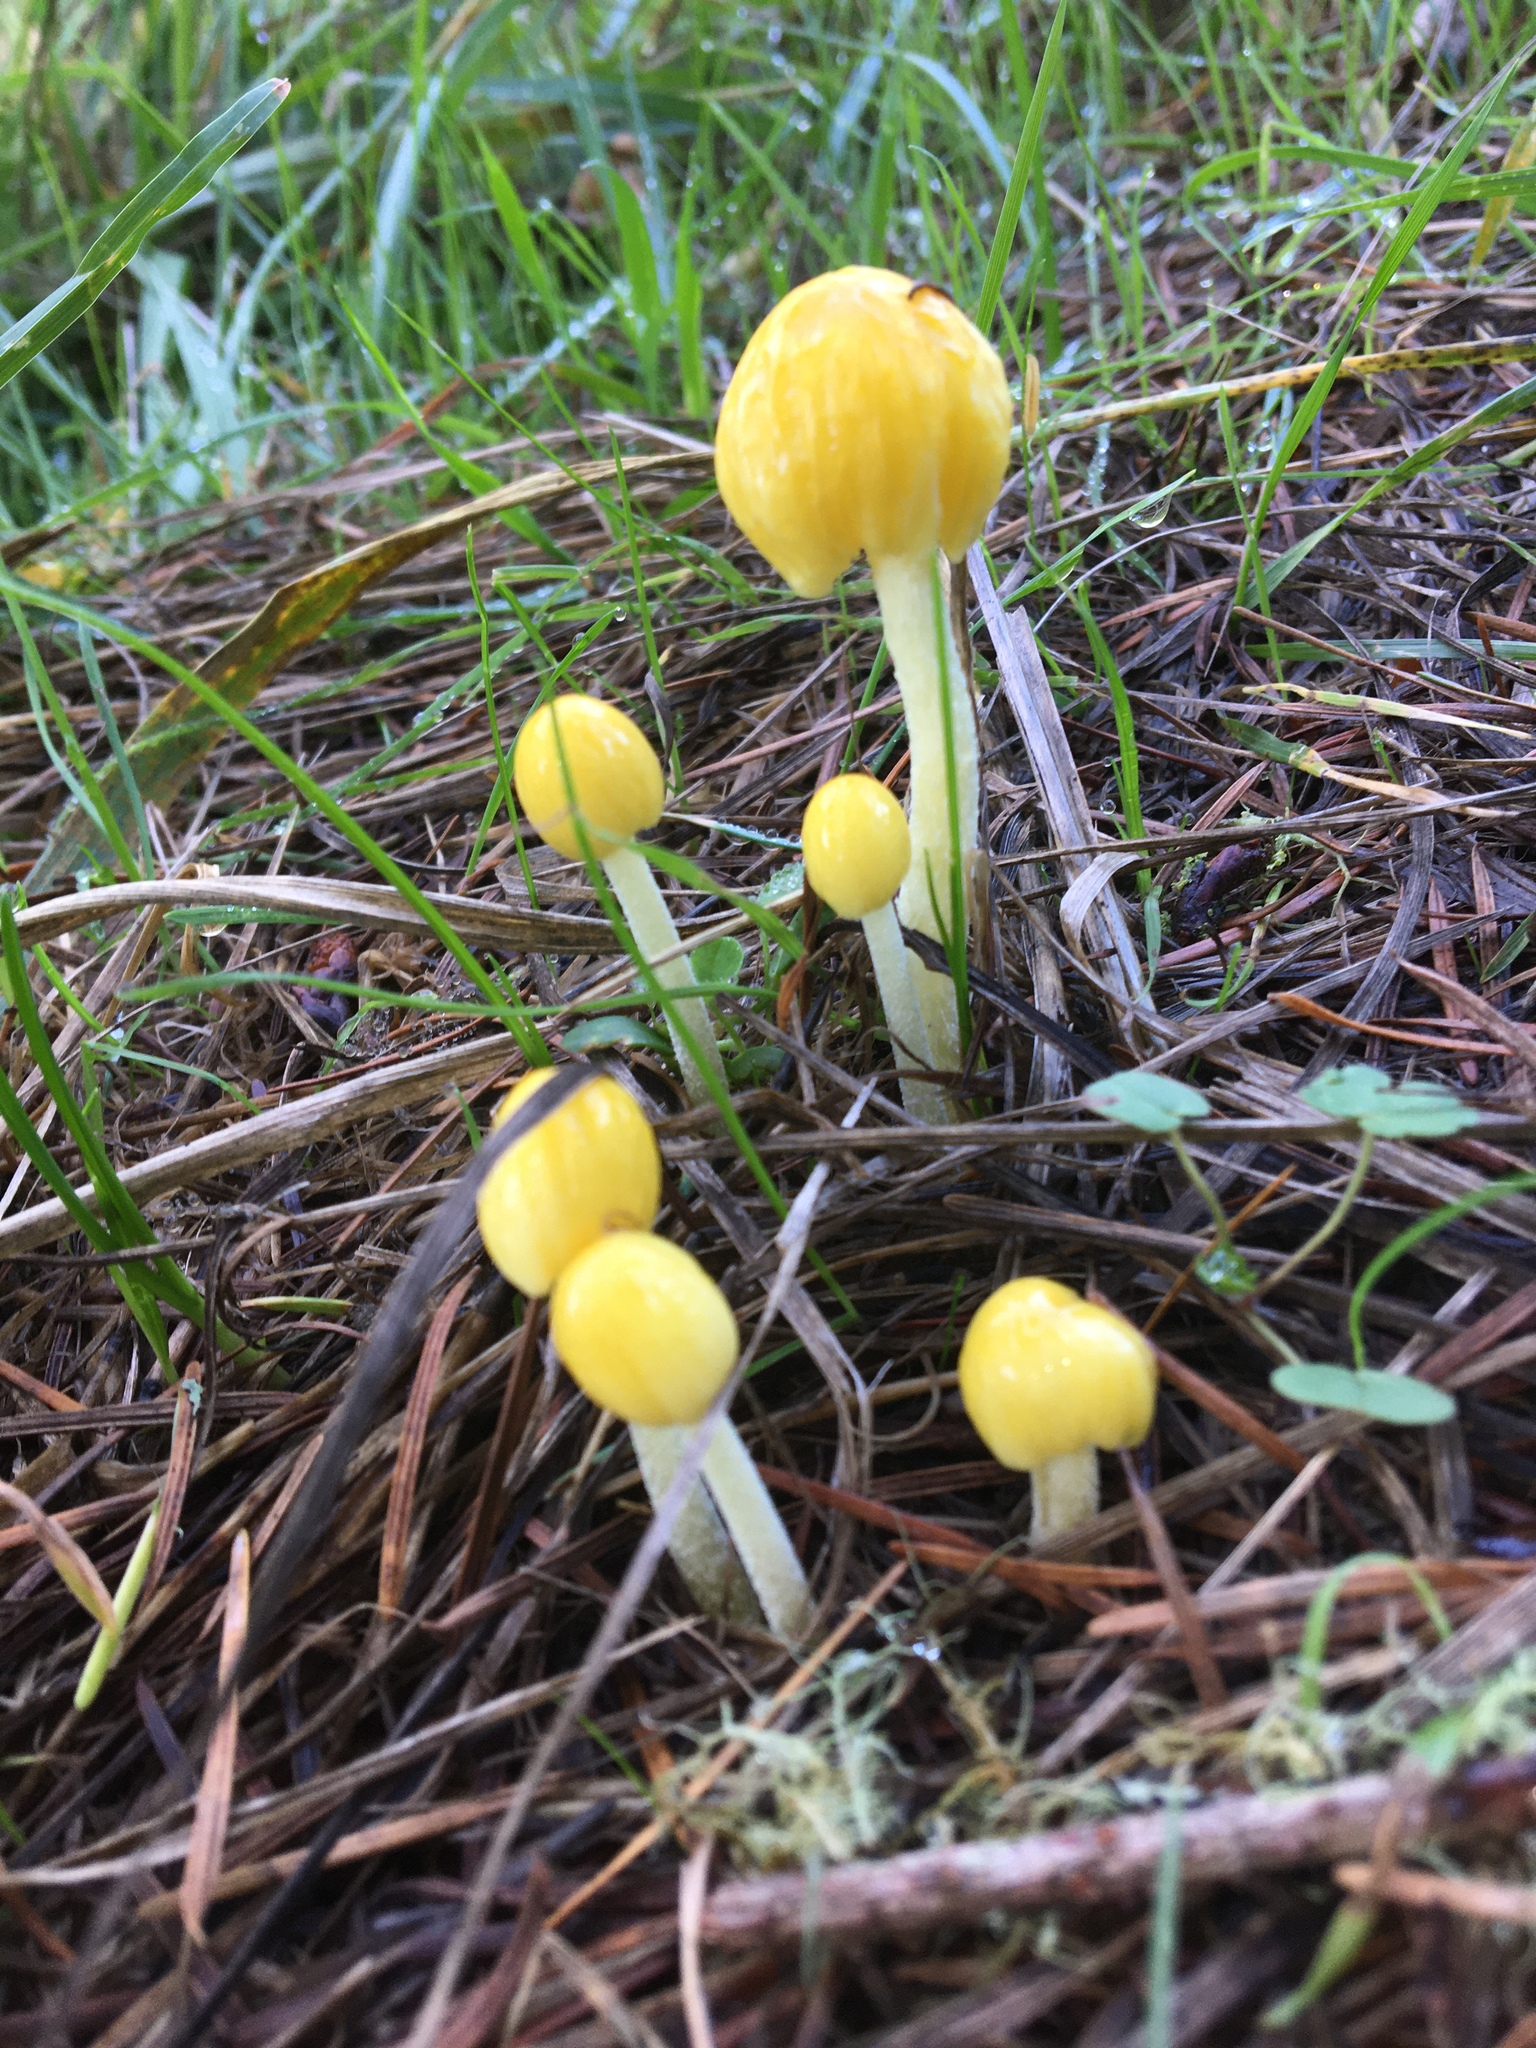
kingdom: Fungi
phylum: Basidiomycota
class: Agaricomycetes
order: Agaricales
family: Bolbitiaceae
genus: Bolbitius
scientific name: Bolbitius titubans
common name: Yellow fieldcap
